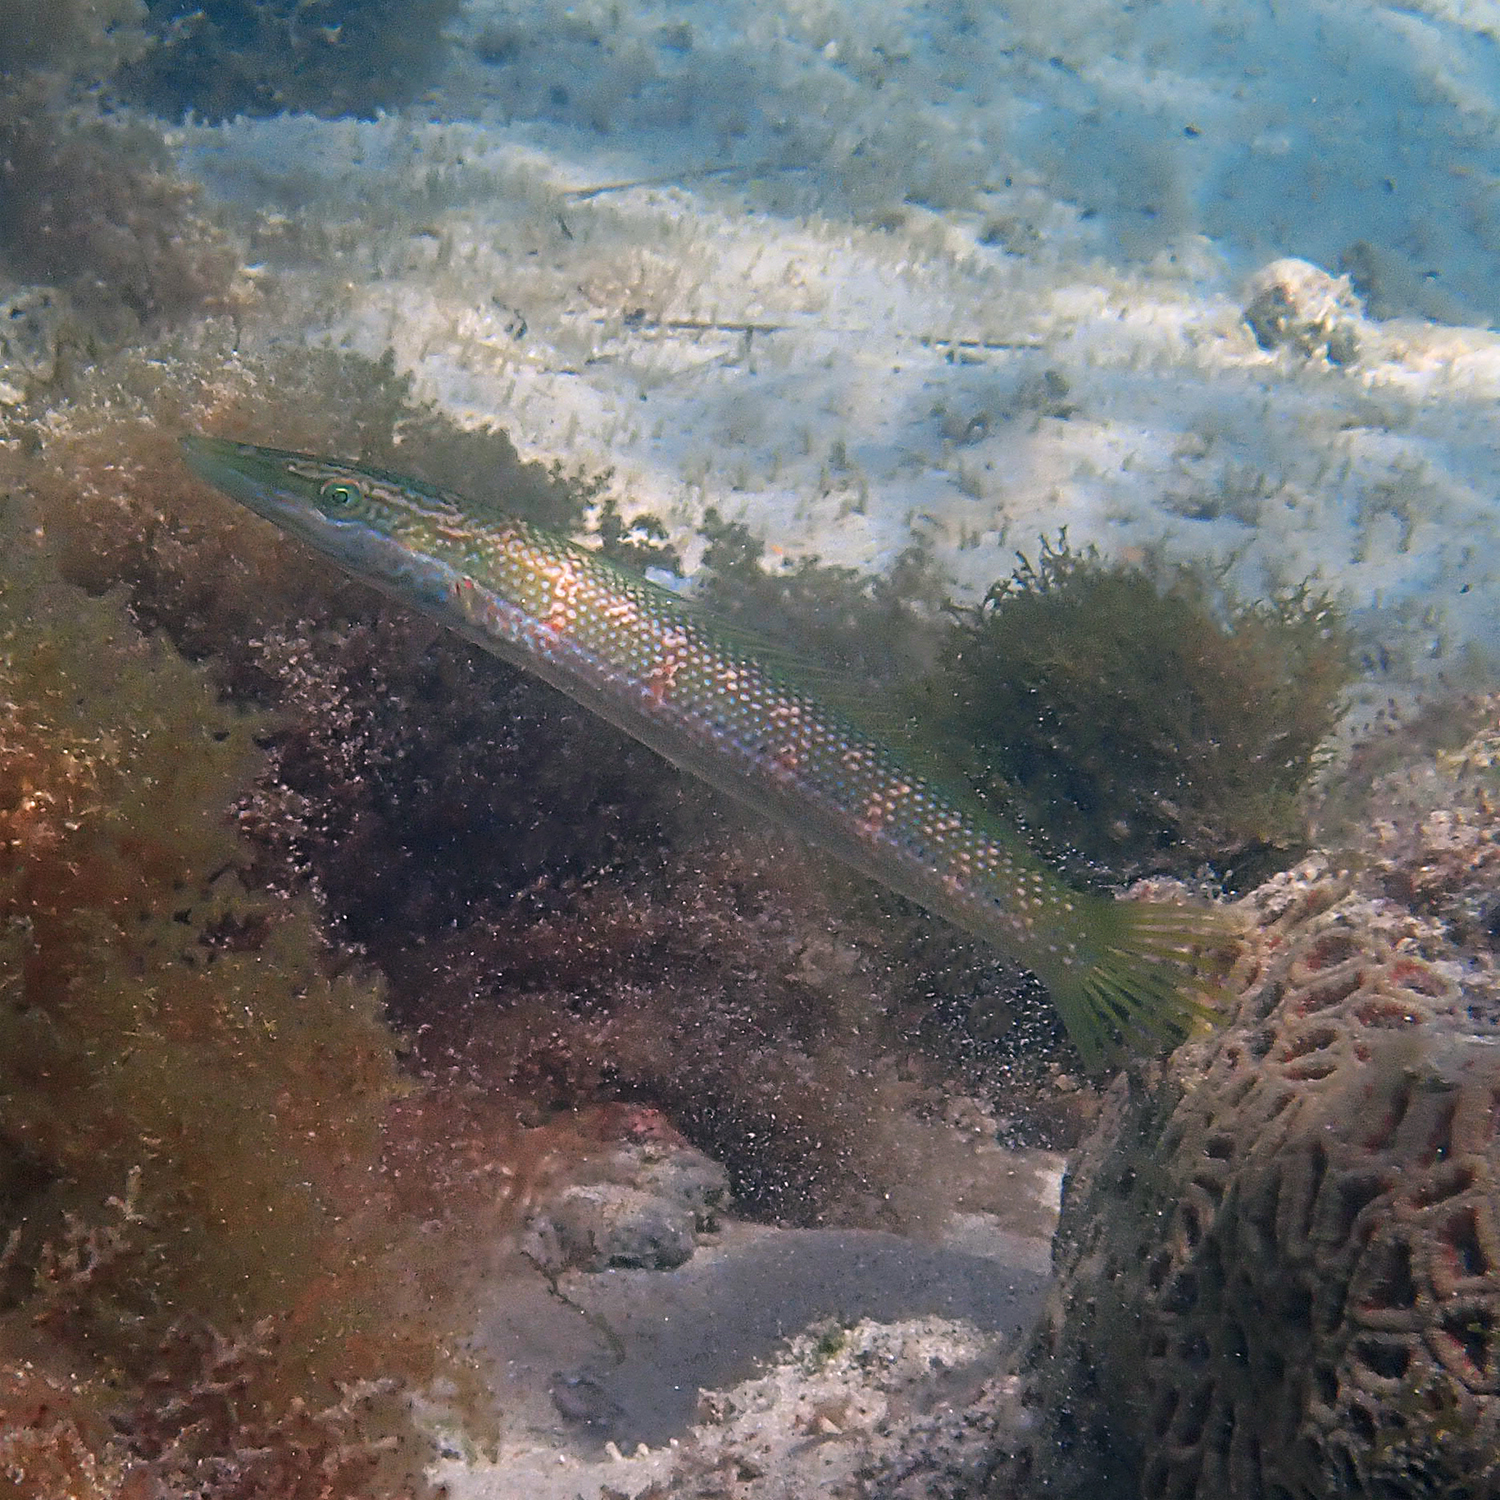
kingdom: Animalia
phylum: Chordata
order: Perciformes
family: Labridae
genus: Cheilio
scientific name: Cheilio inermis
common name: Cigar wrasse
